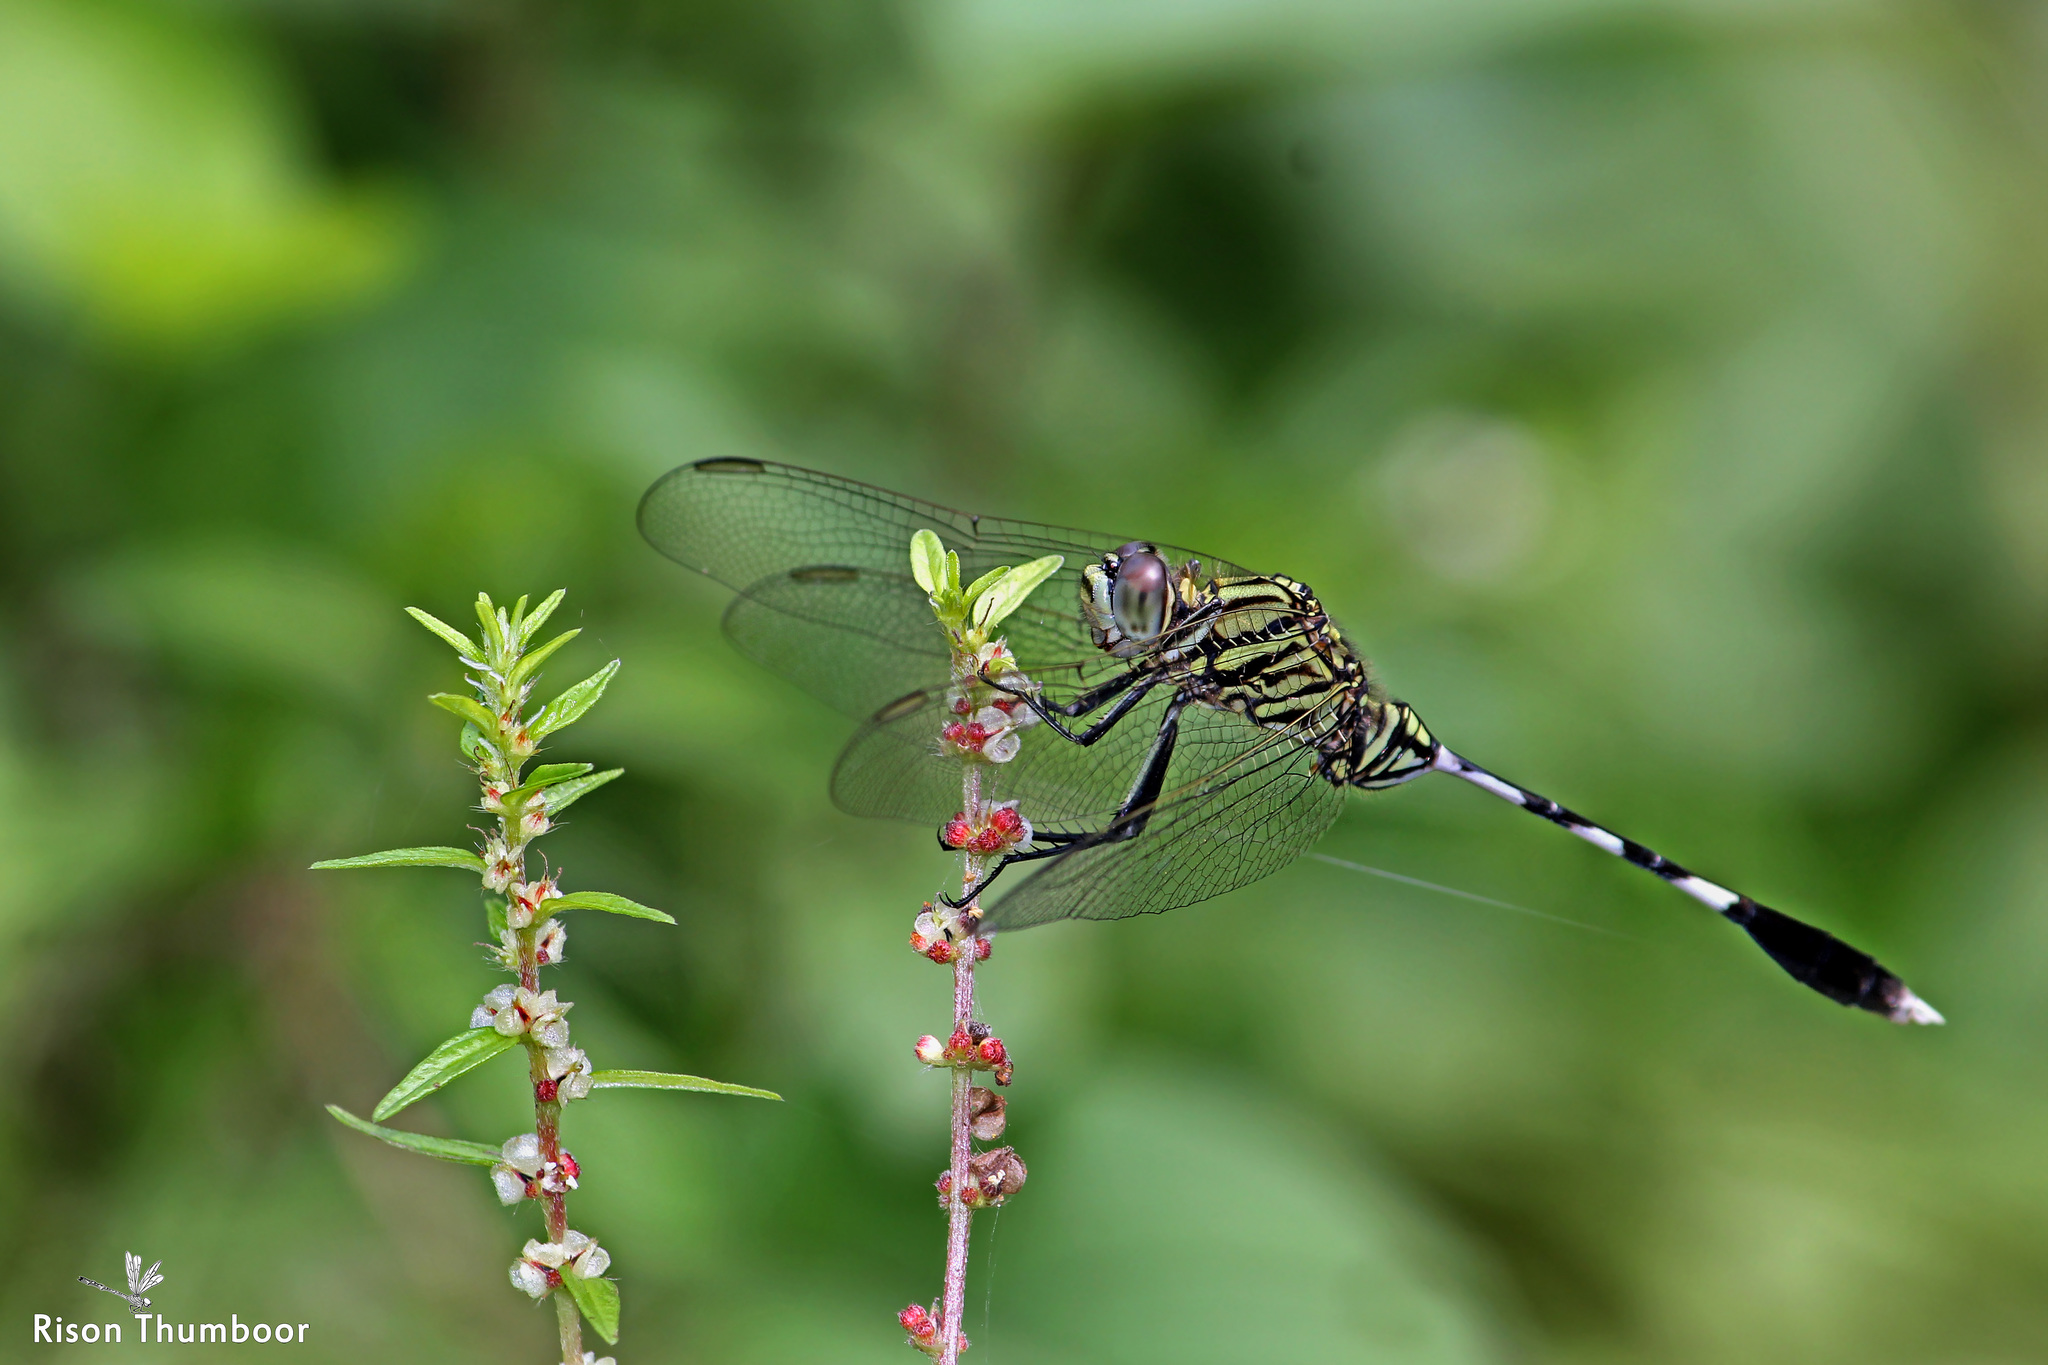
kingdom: Animalia
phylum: Arthropoda
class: Insecta
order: Odonata
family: Libellulidae
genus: Orthetrum
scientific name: Orthetrum sabina
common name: Slender skimmer
